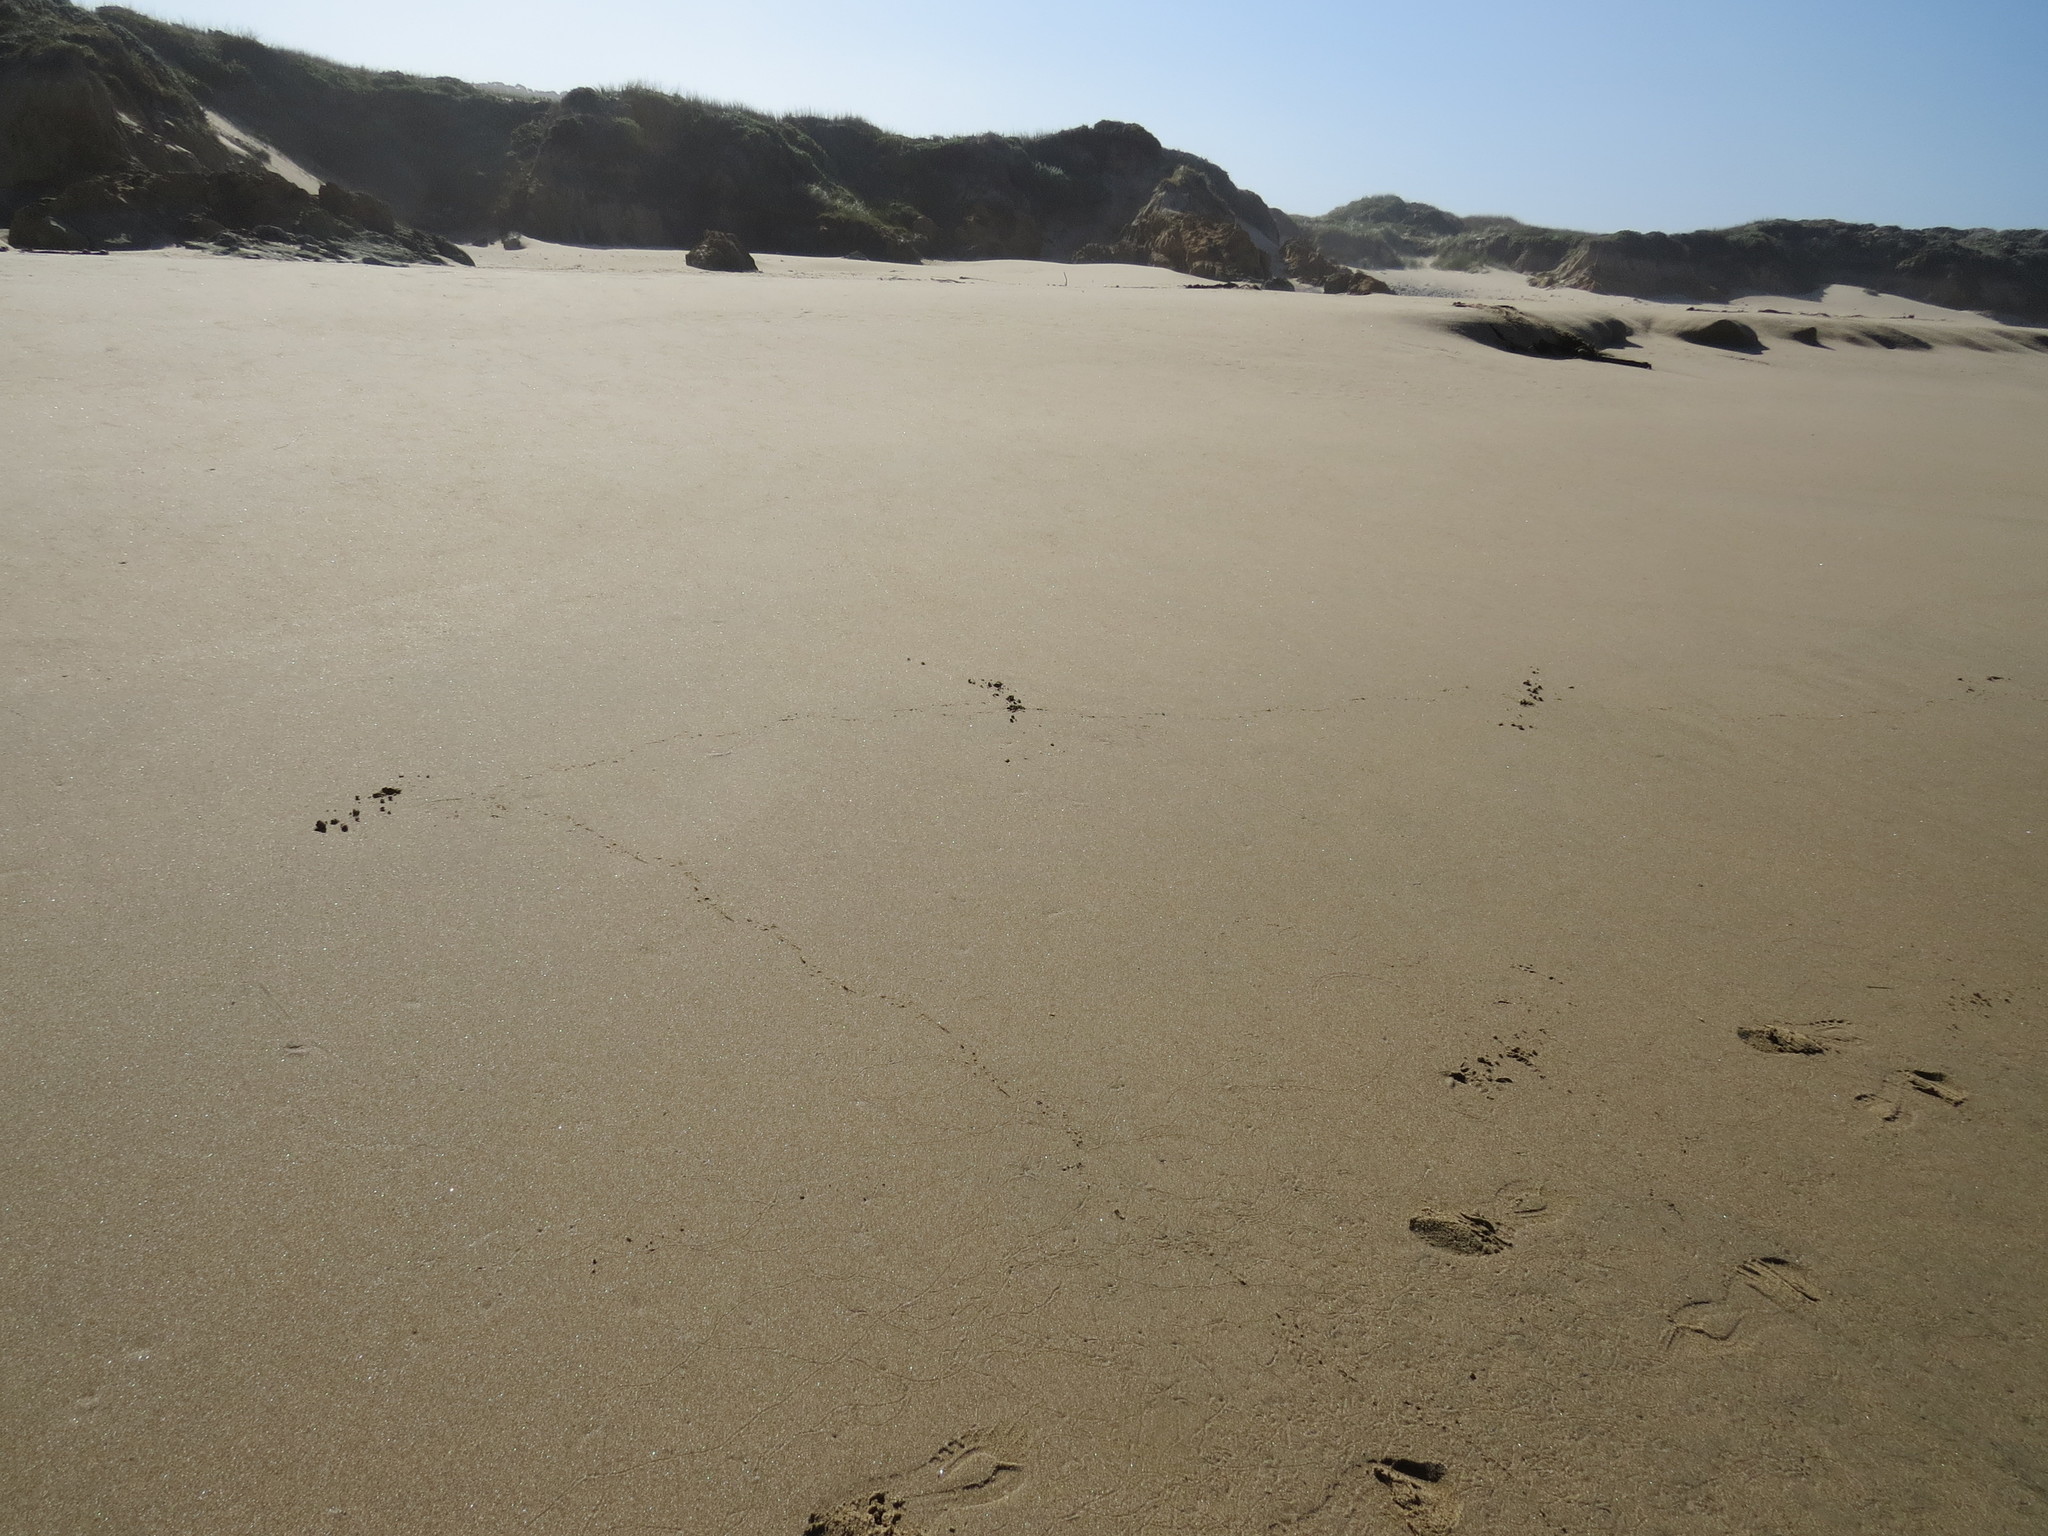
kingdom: Animalia
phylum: Chordata
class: Aves
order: Passeriformes
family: Corvidae
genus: Corvus
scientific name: Corvus corax
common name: Common raven
